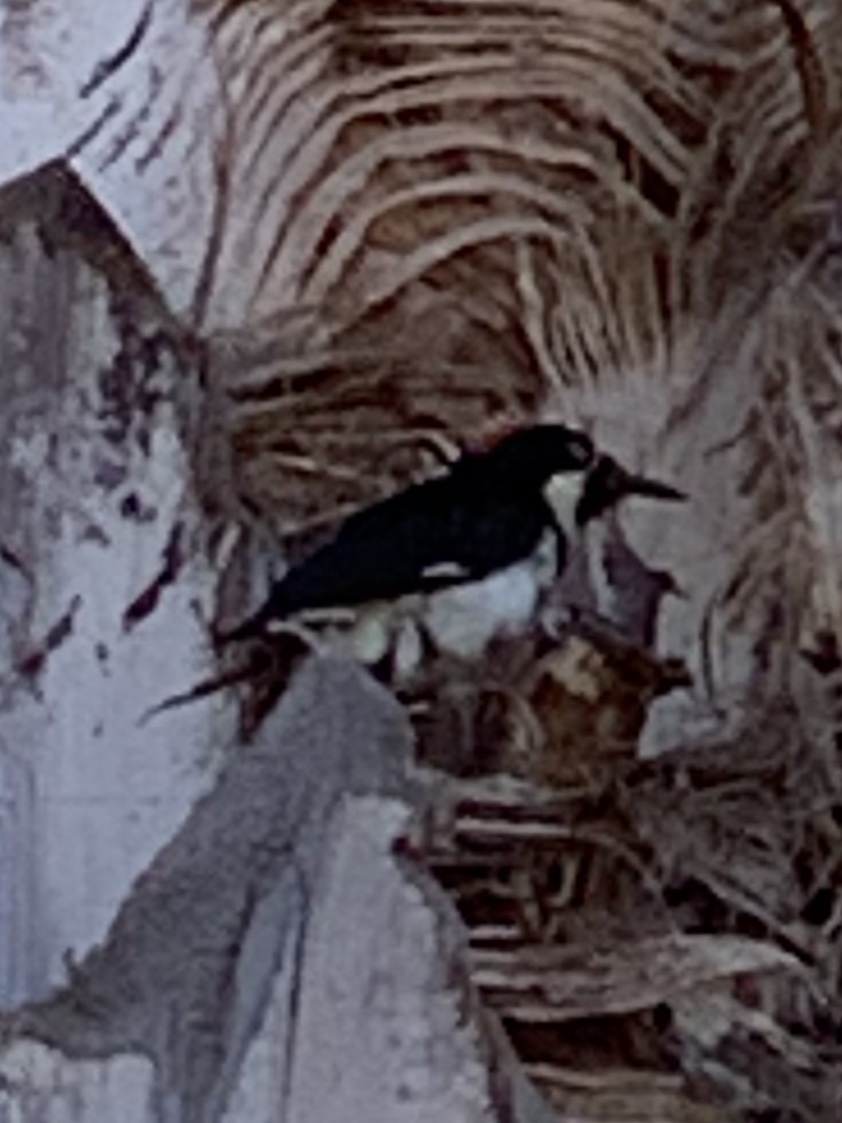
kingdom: Animalia
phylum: Chordata
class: Aves
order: Piciformes
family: Picidae
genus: Melanerpes
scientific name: Melanerpes formicivorus
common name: Acorn woodpecker
